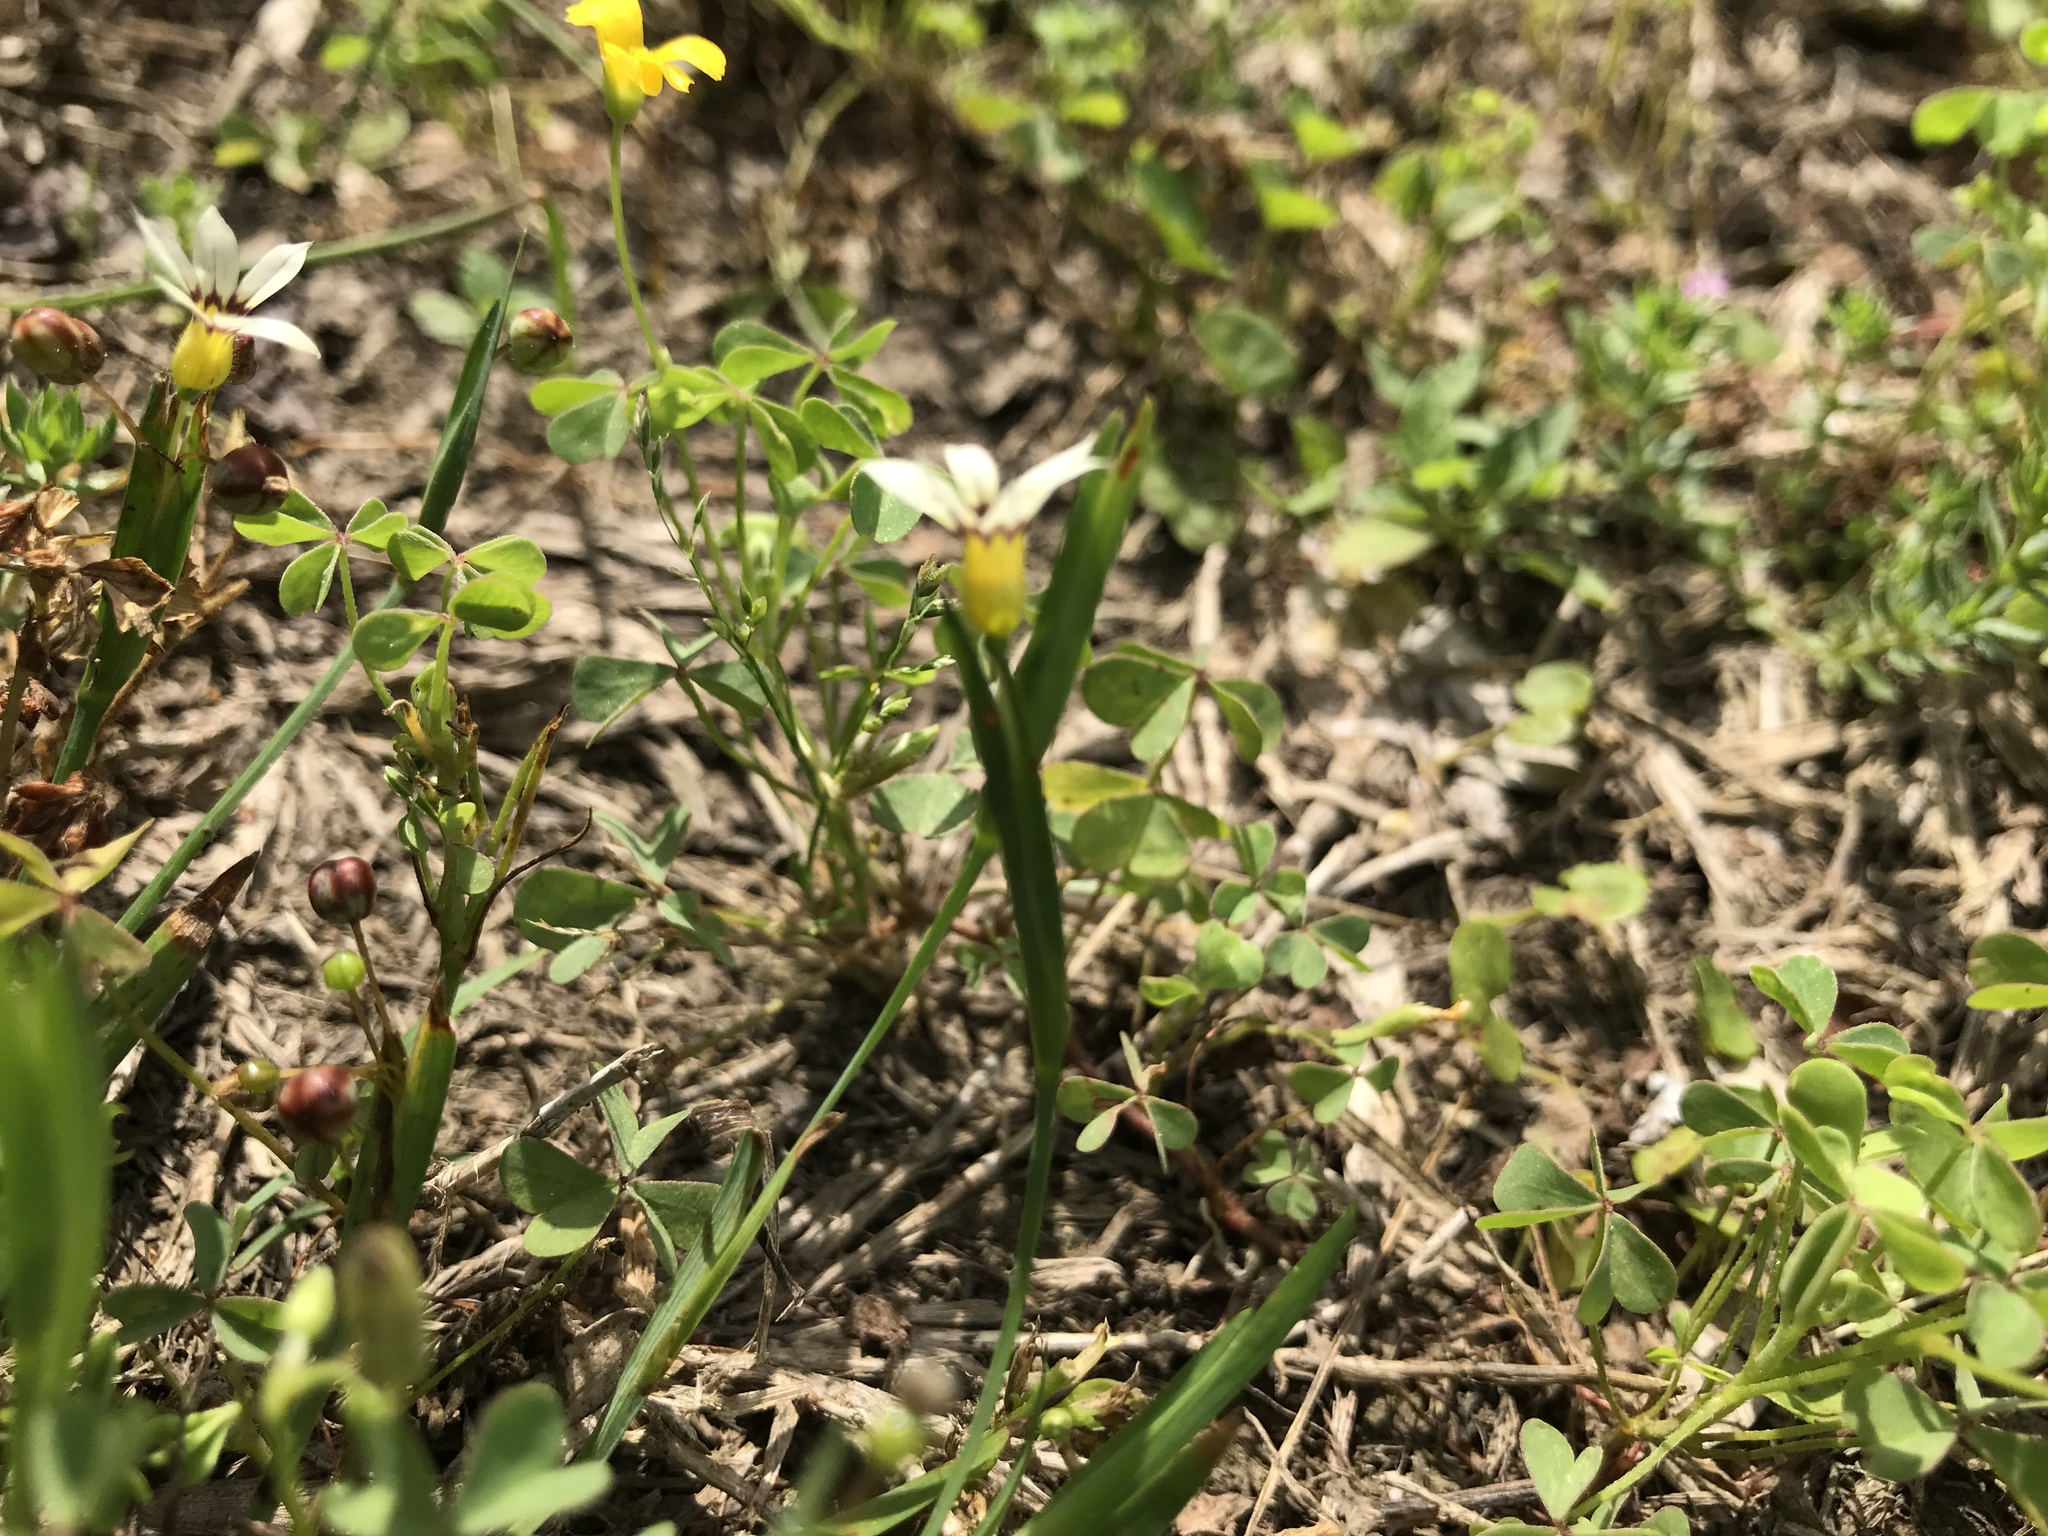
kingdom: Plantae
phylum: Tracheophyta
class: Liliopsida
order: Asparagales
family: Iridaceae
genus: Sisyrinchium
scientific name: Sisyrinchium micranthum
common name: Bermuda pigroot
